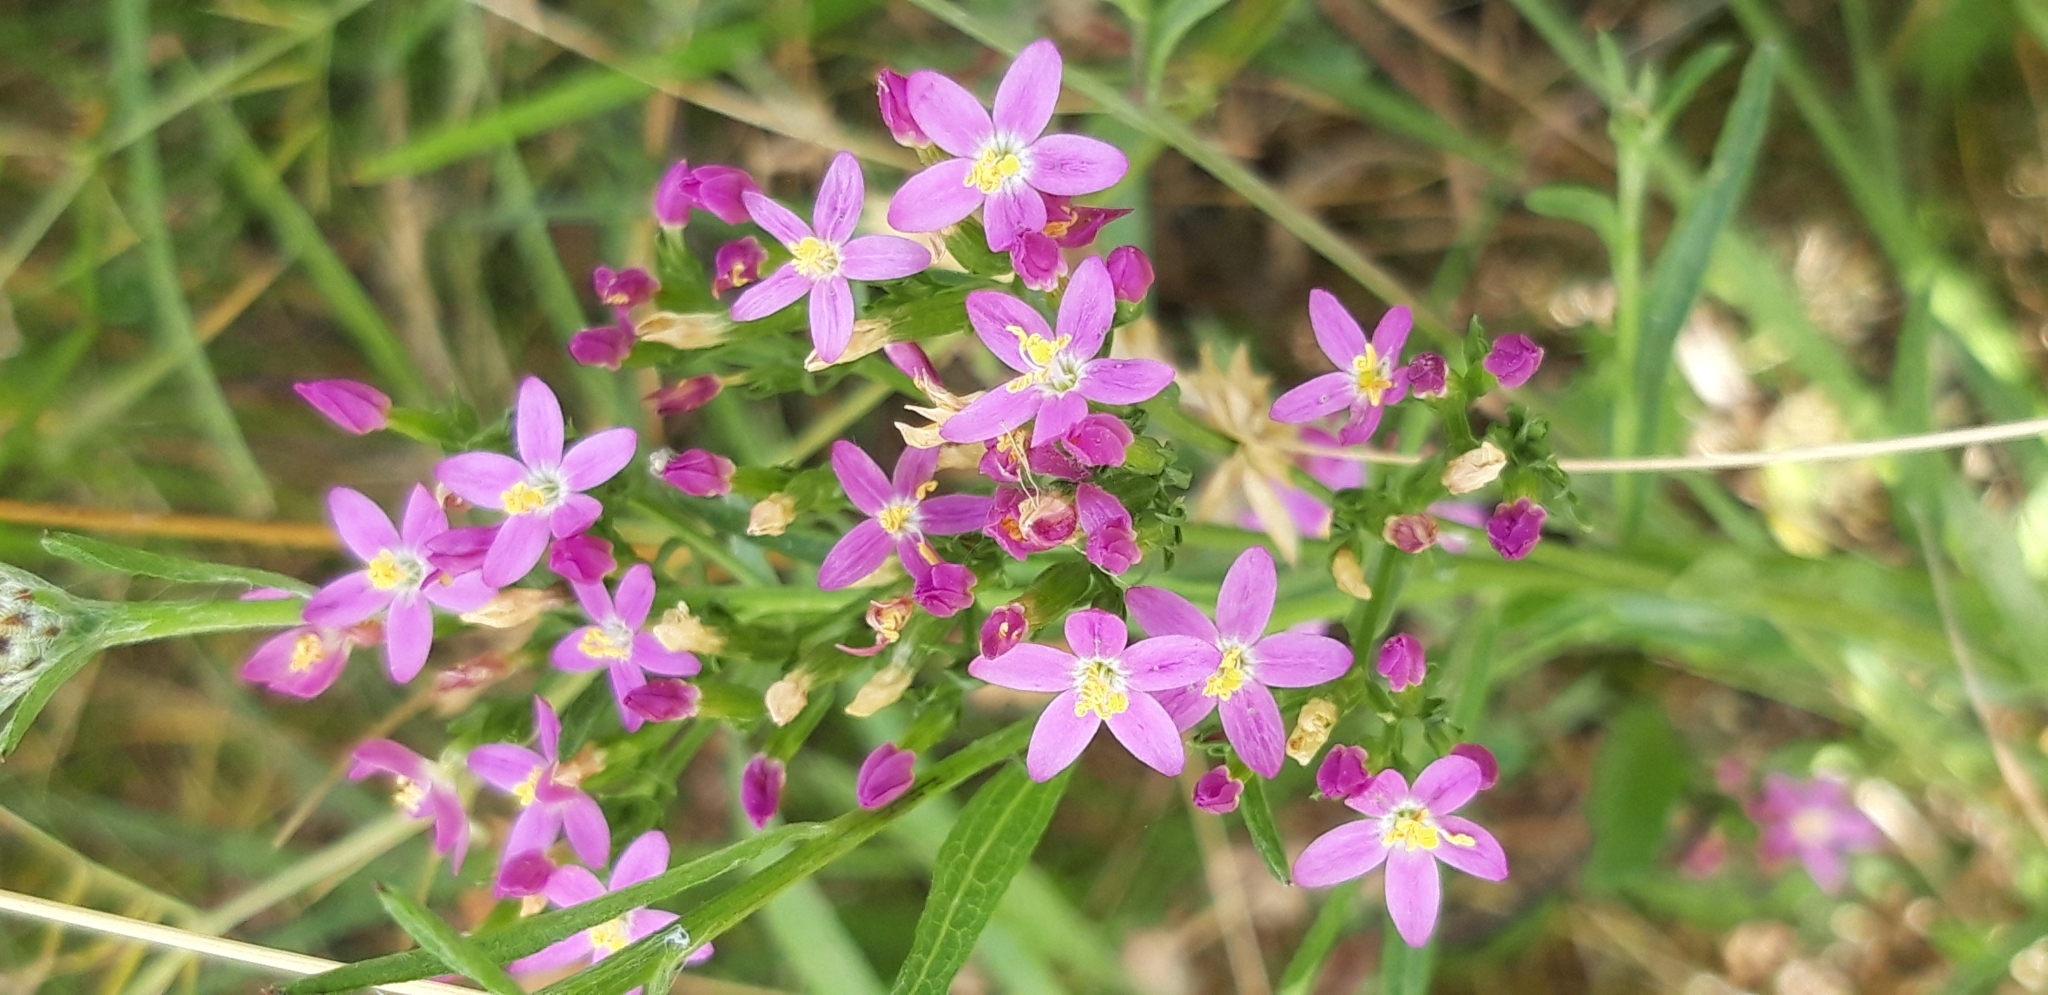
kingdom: Plantae
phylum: Tracheophyta
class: Magnoliopsida
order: Gentianales
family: Gentianaceae
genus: Centaurium
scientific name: Centaurium erythraea
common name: Common centaury
